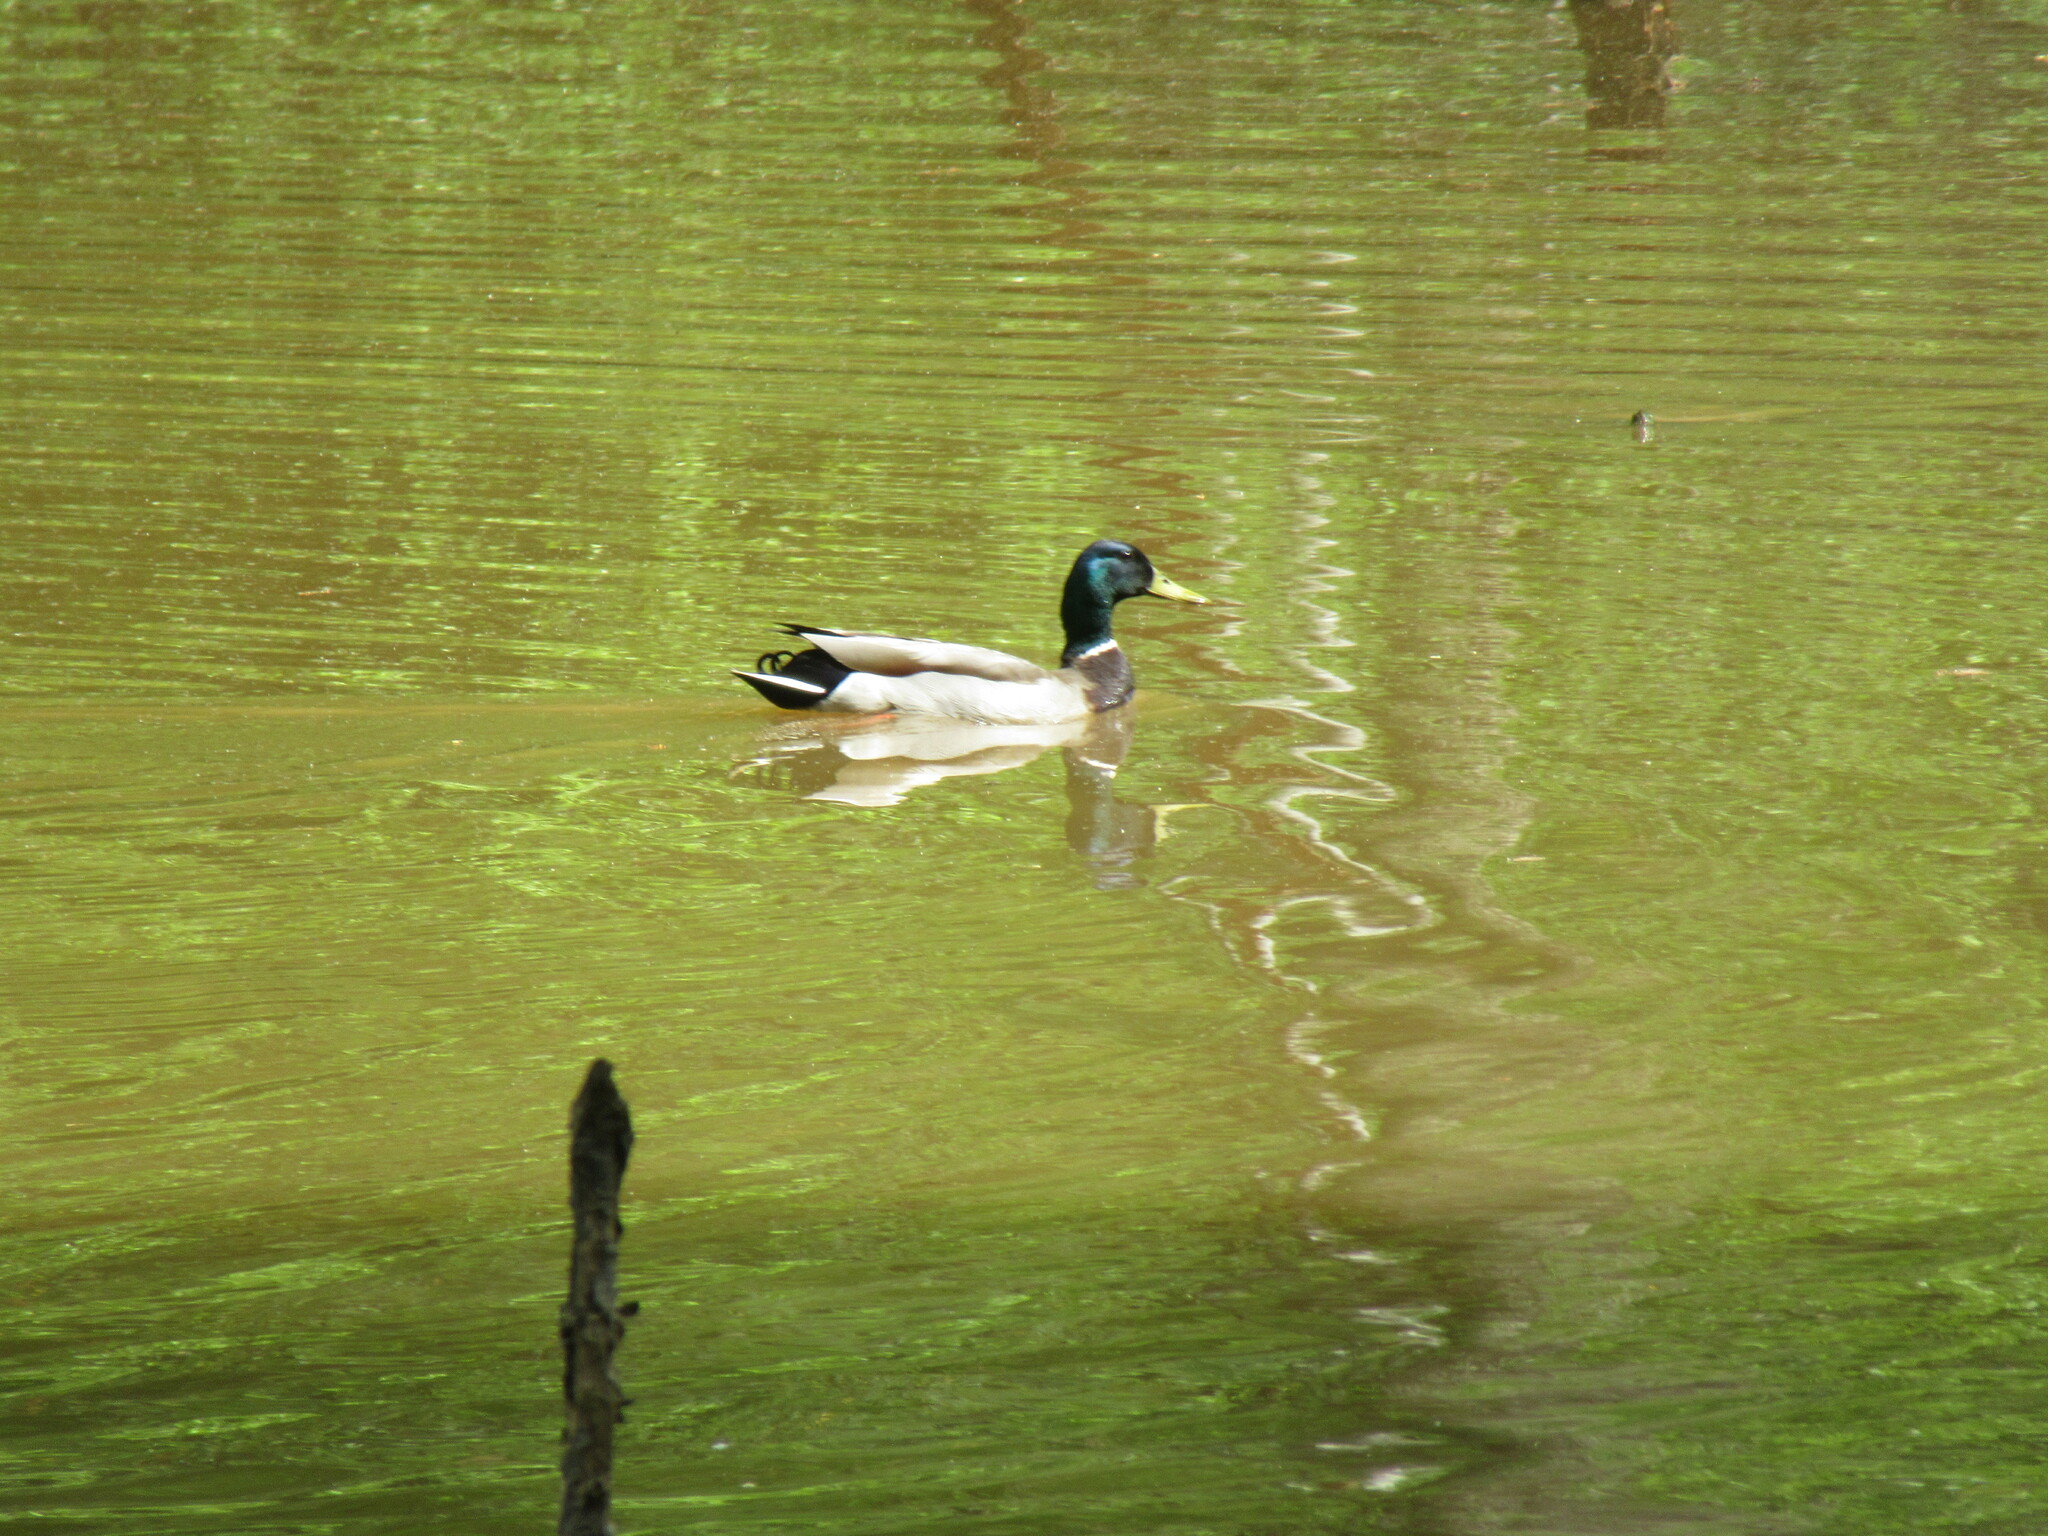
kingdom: Animalia
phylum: Chordata
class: Aves
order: Anseriformes
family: Anatidae
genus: Anas
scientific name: Anas platyrhynchos
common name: Mallard
